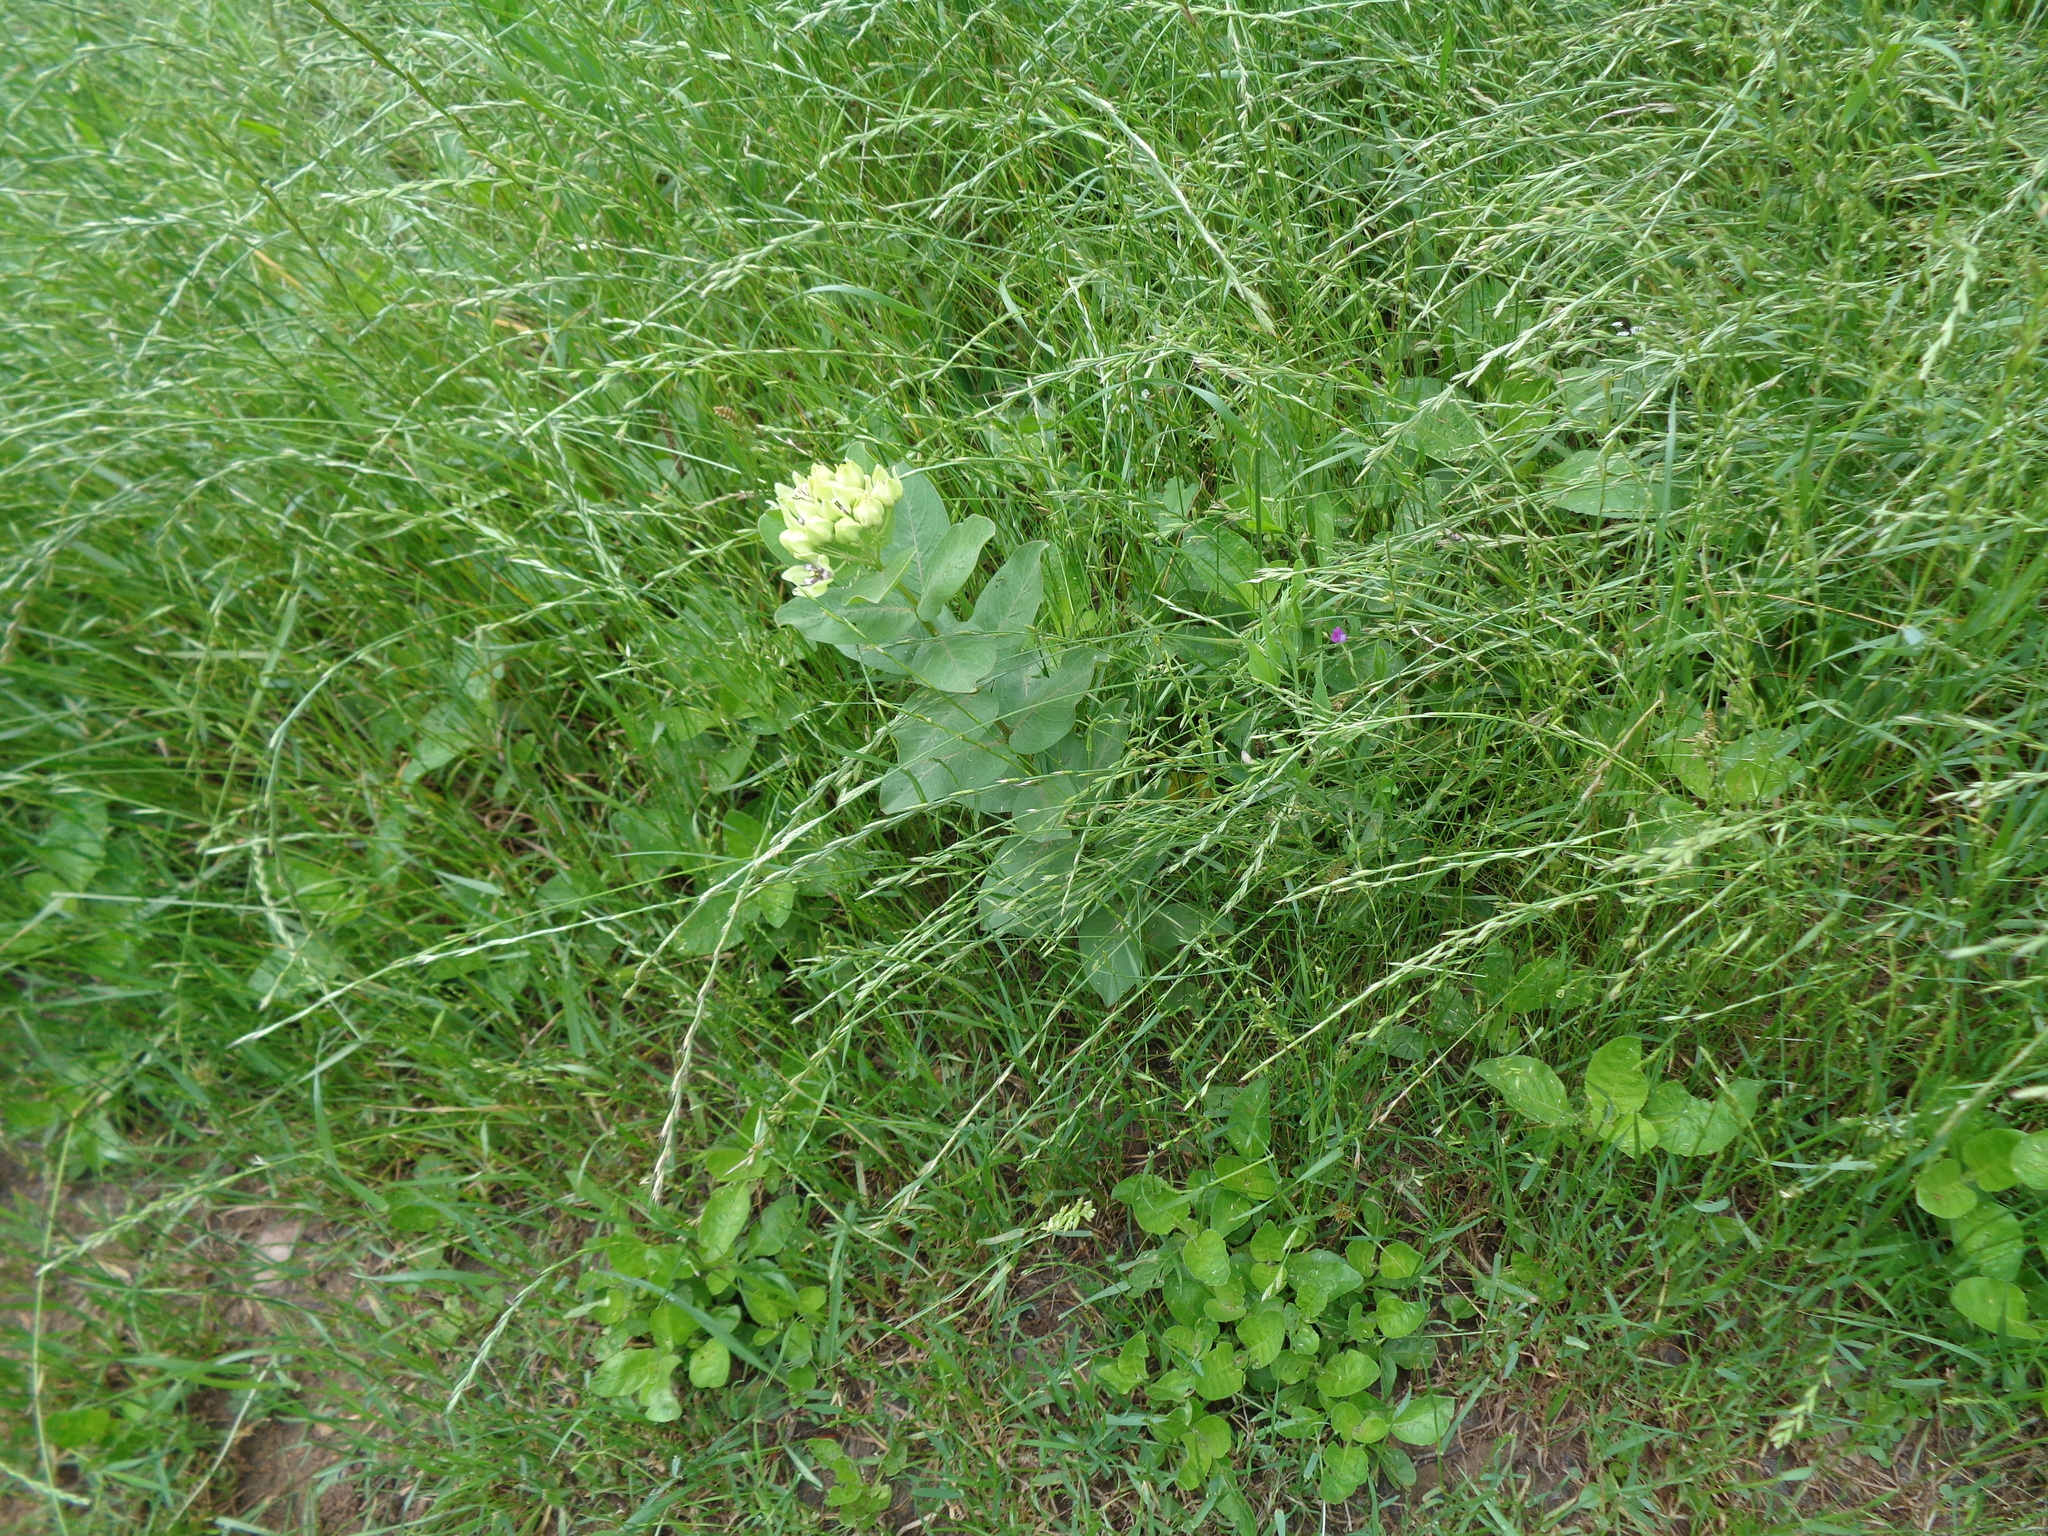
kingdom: Plantae
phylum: Tracheophyta
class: Magnoliopsida
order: Gentianales
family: Apocynaceae
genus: Asclepias
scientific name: Asclepias viridis
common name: Antelope-horns
